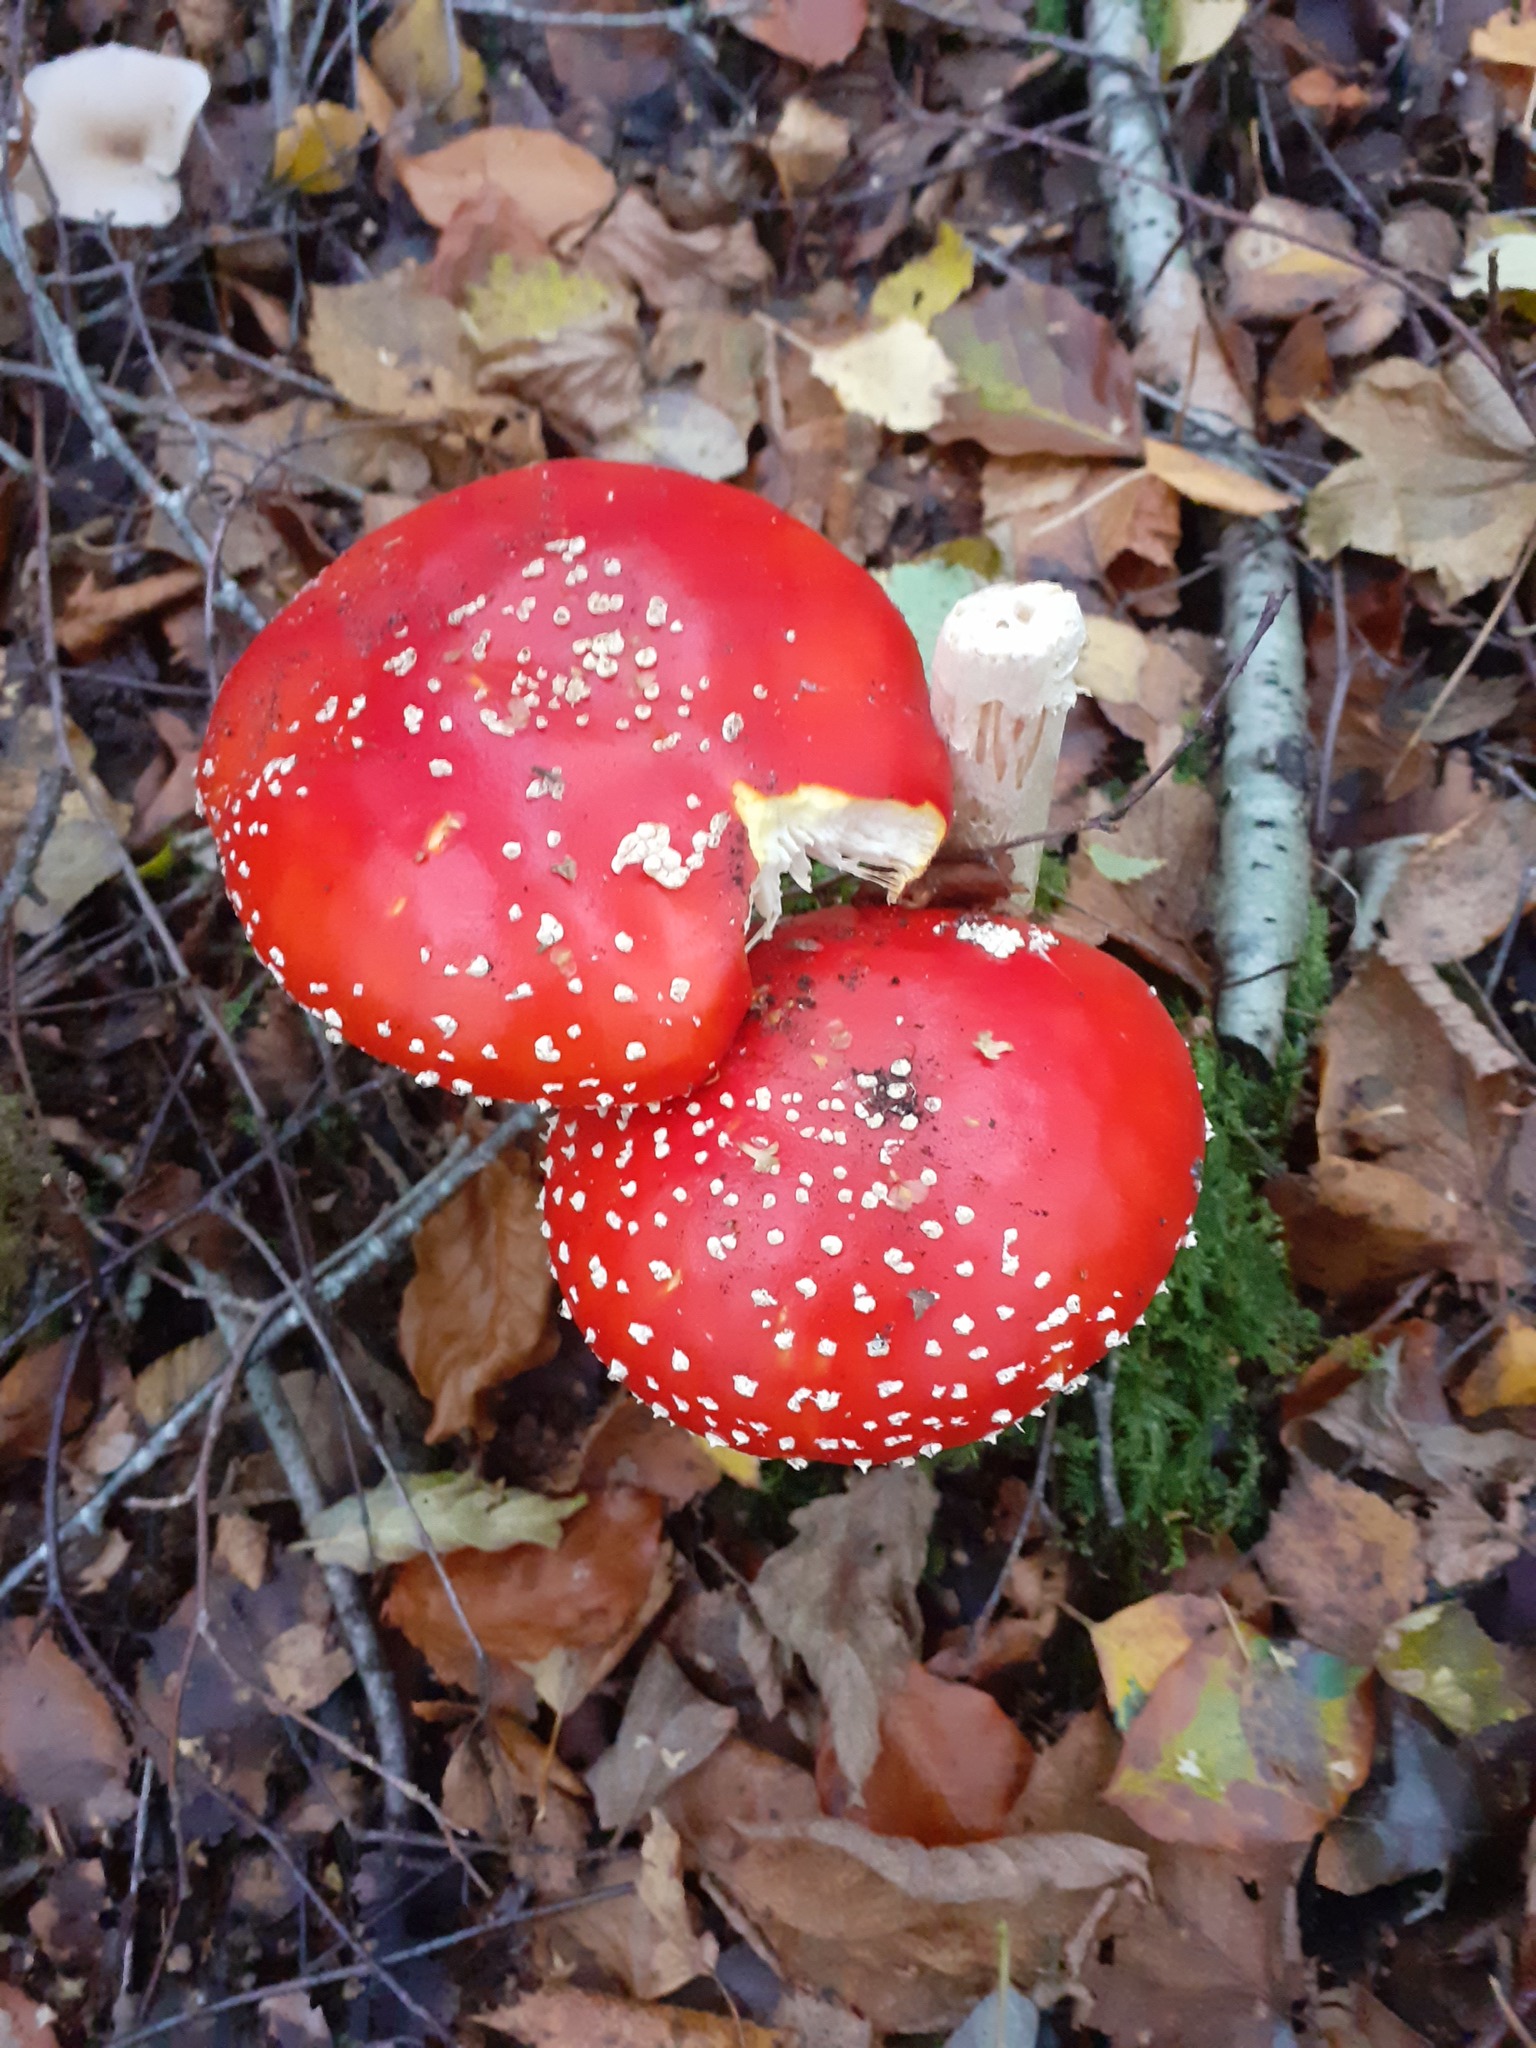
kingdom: Fungi
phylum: Basidiomycota
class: Agaricomycetes
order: Agaricales
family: Amanitaceae
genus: Amanita
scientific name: Amanita muscaria
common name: Fly agaric
